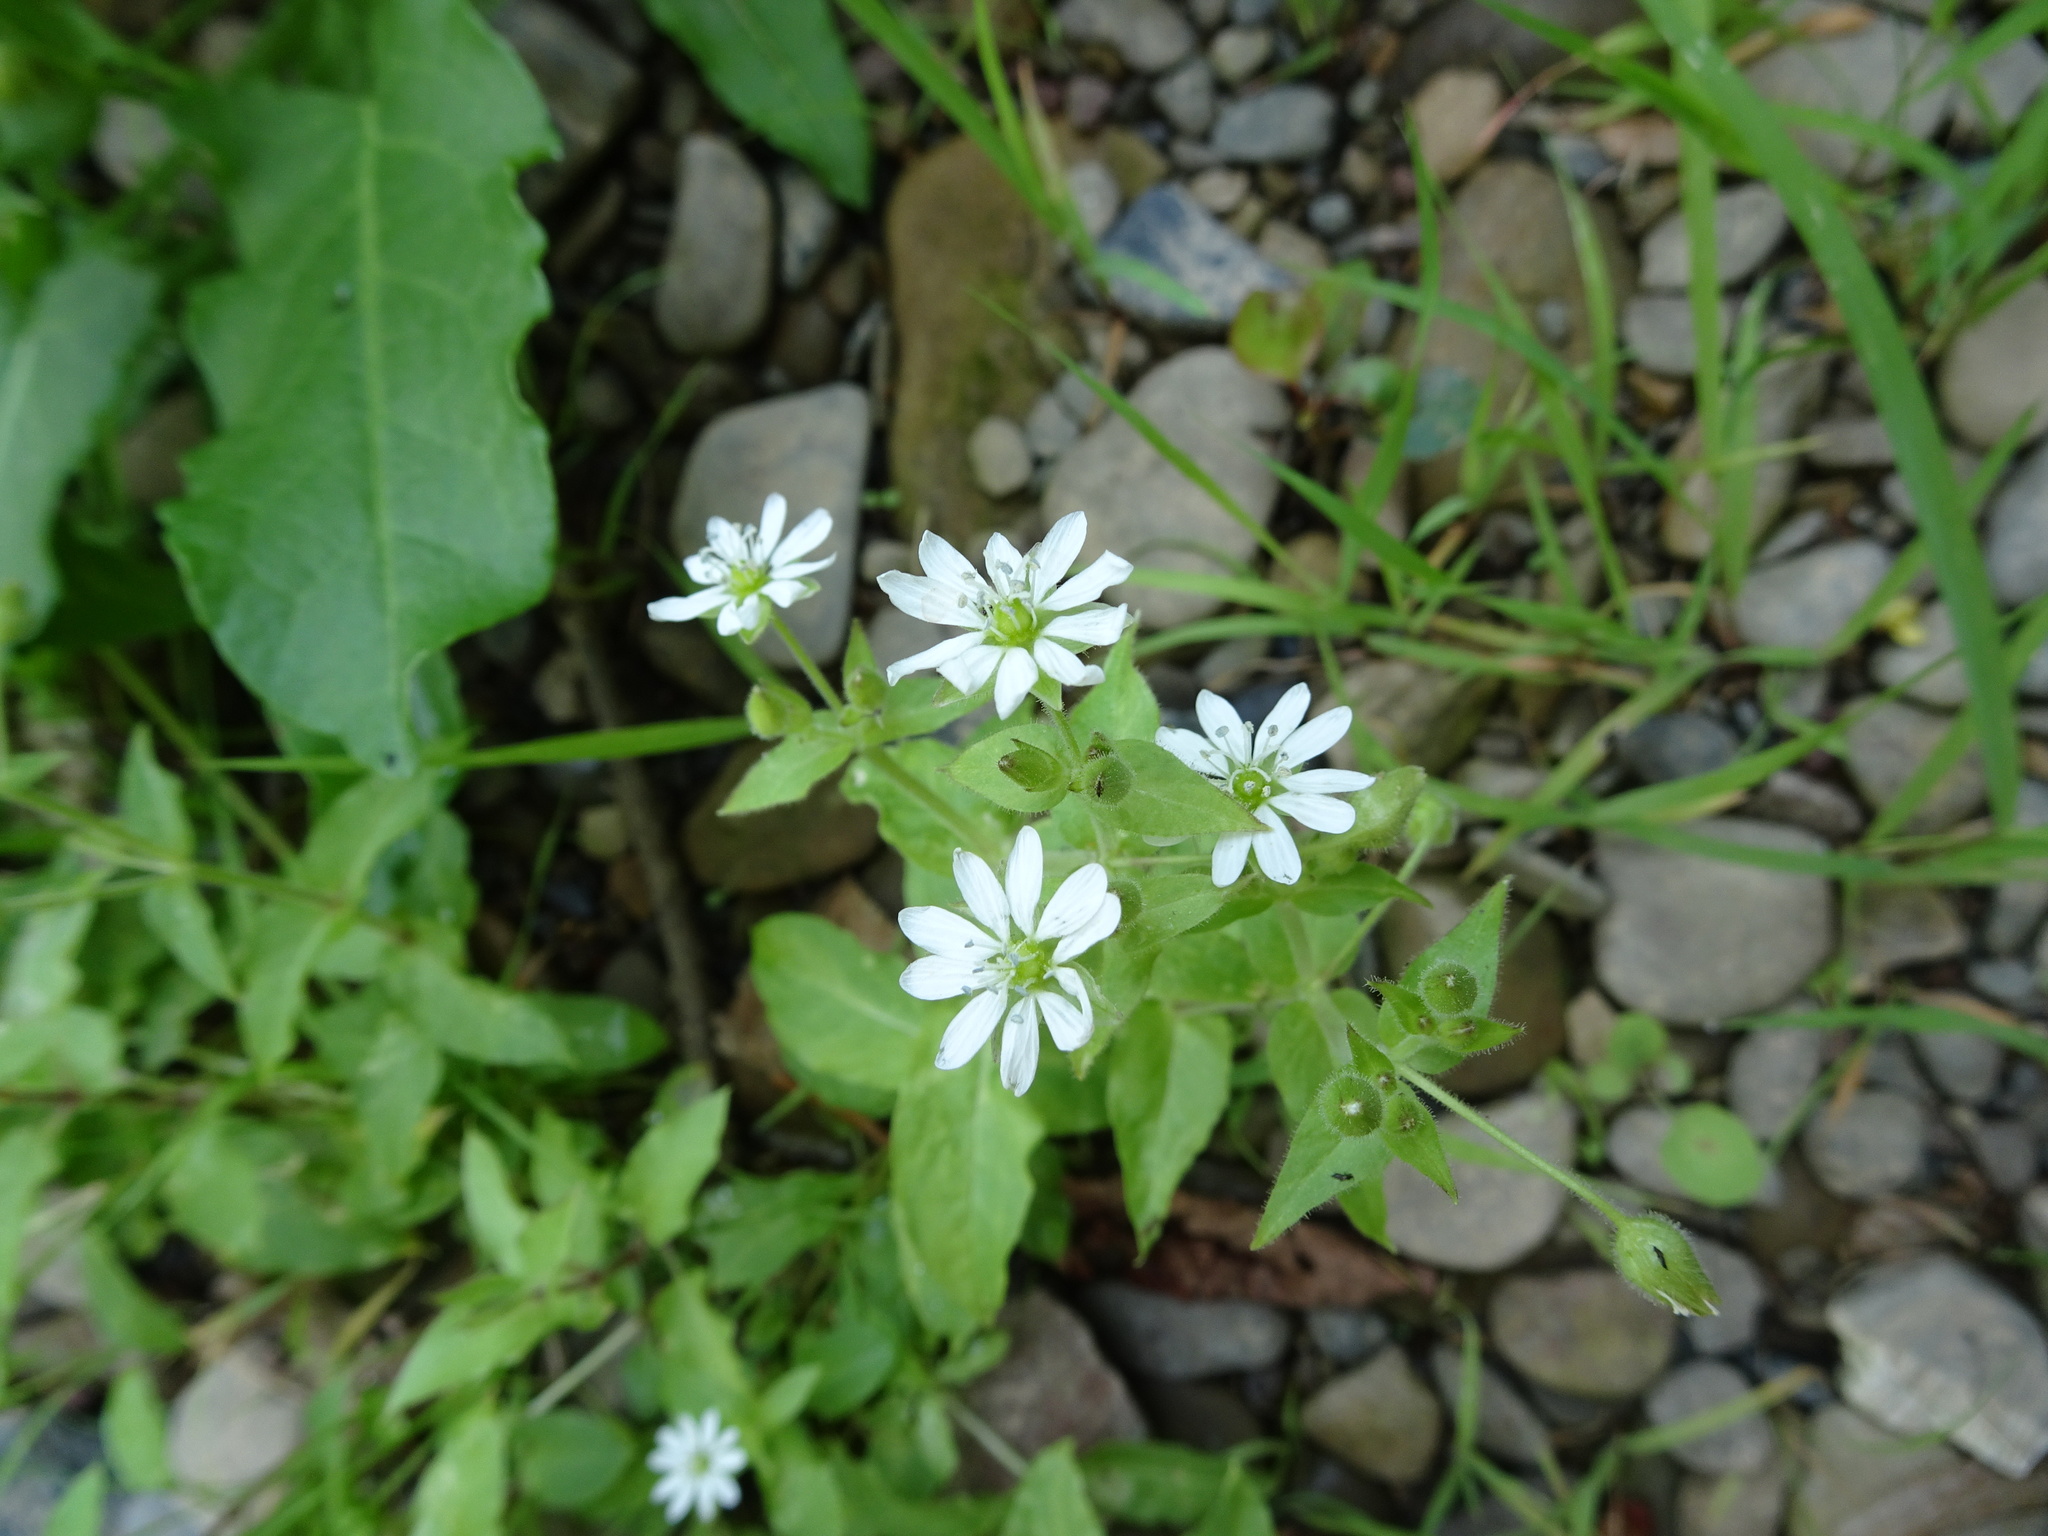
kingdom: Plantae
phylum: Tracheophyta
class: Magnoliopsida
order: Caryophyllales
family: Caryophyllaceae
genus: Stellaria
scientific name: Stellaria aquatica
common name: Water chickweed
